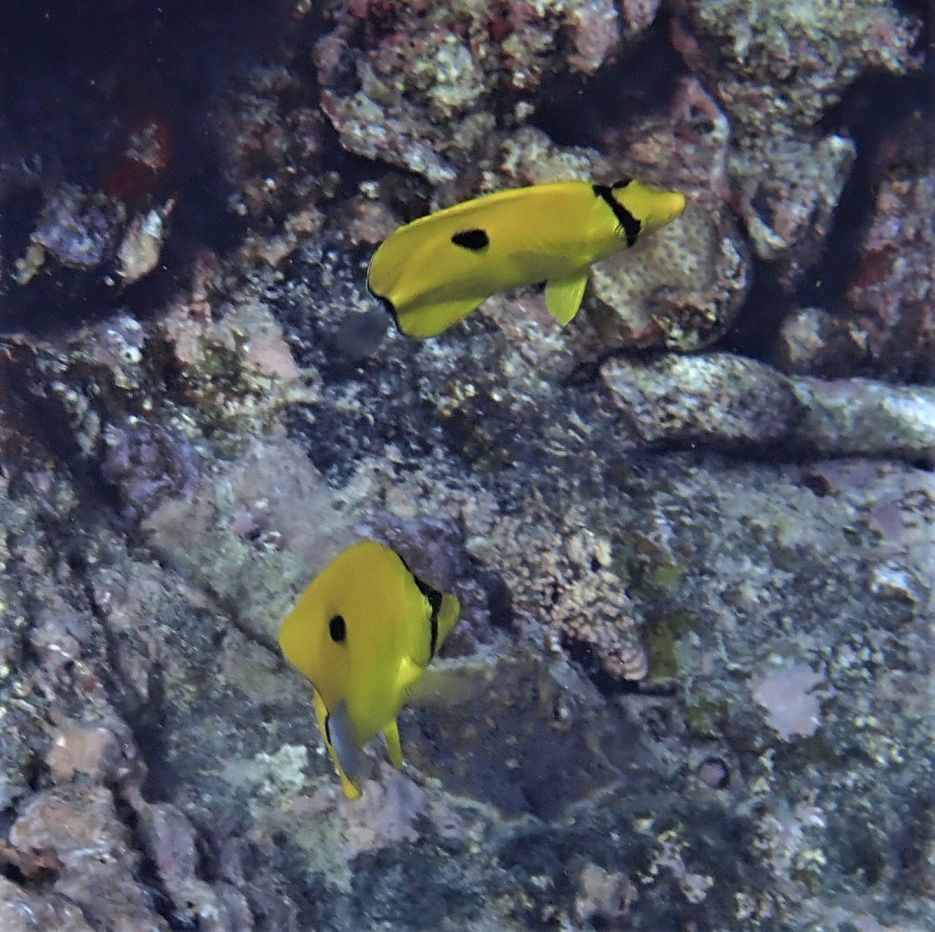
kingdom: Animalia
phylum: Chordata
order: Perciformes
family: Chaetodontidae
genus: Chaetodon
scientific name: Chaetodon interruptus
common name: Yellow teardrop butterflyfish
